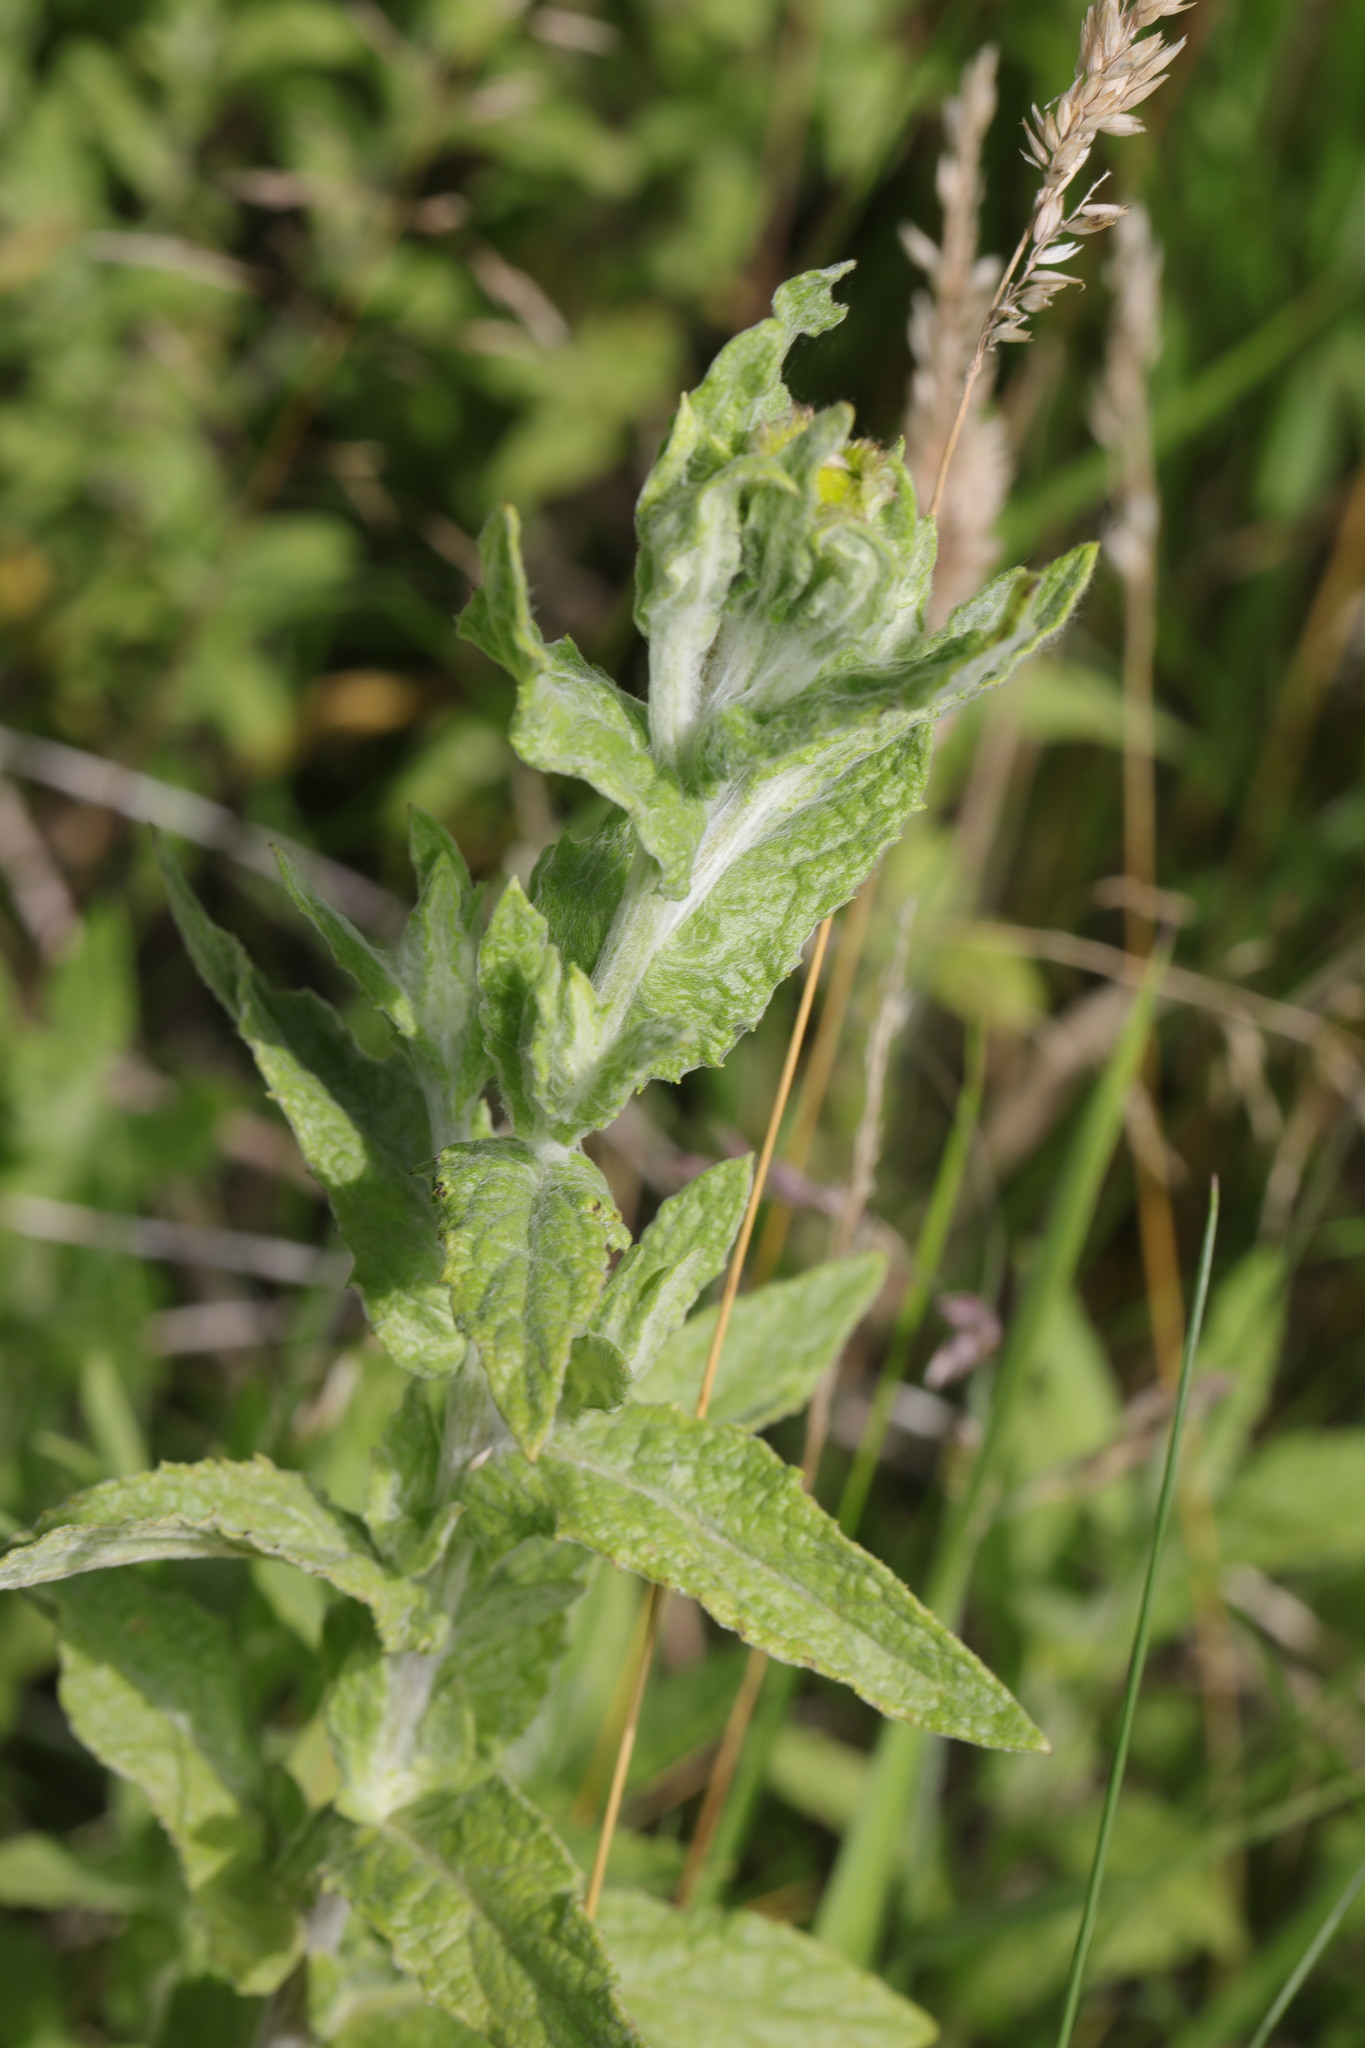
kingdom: Plantae
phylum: Tracheophyta
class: Magnoliopsida
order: Asterales
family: Asteraceae
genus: Pulicaria
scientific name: Pulicaria dysenterica
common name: Common fleabane
